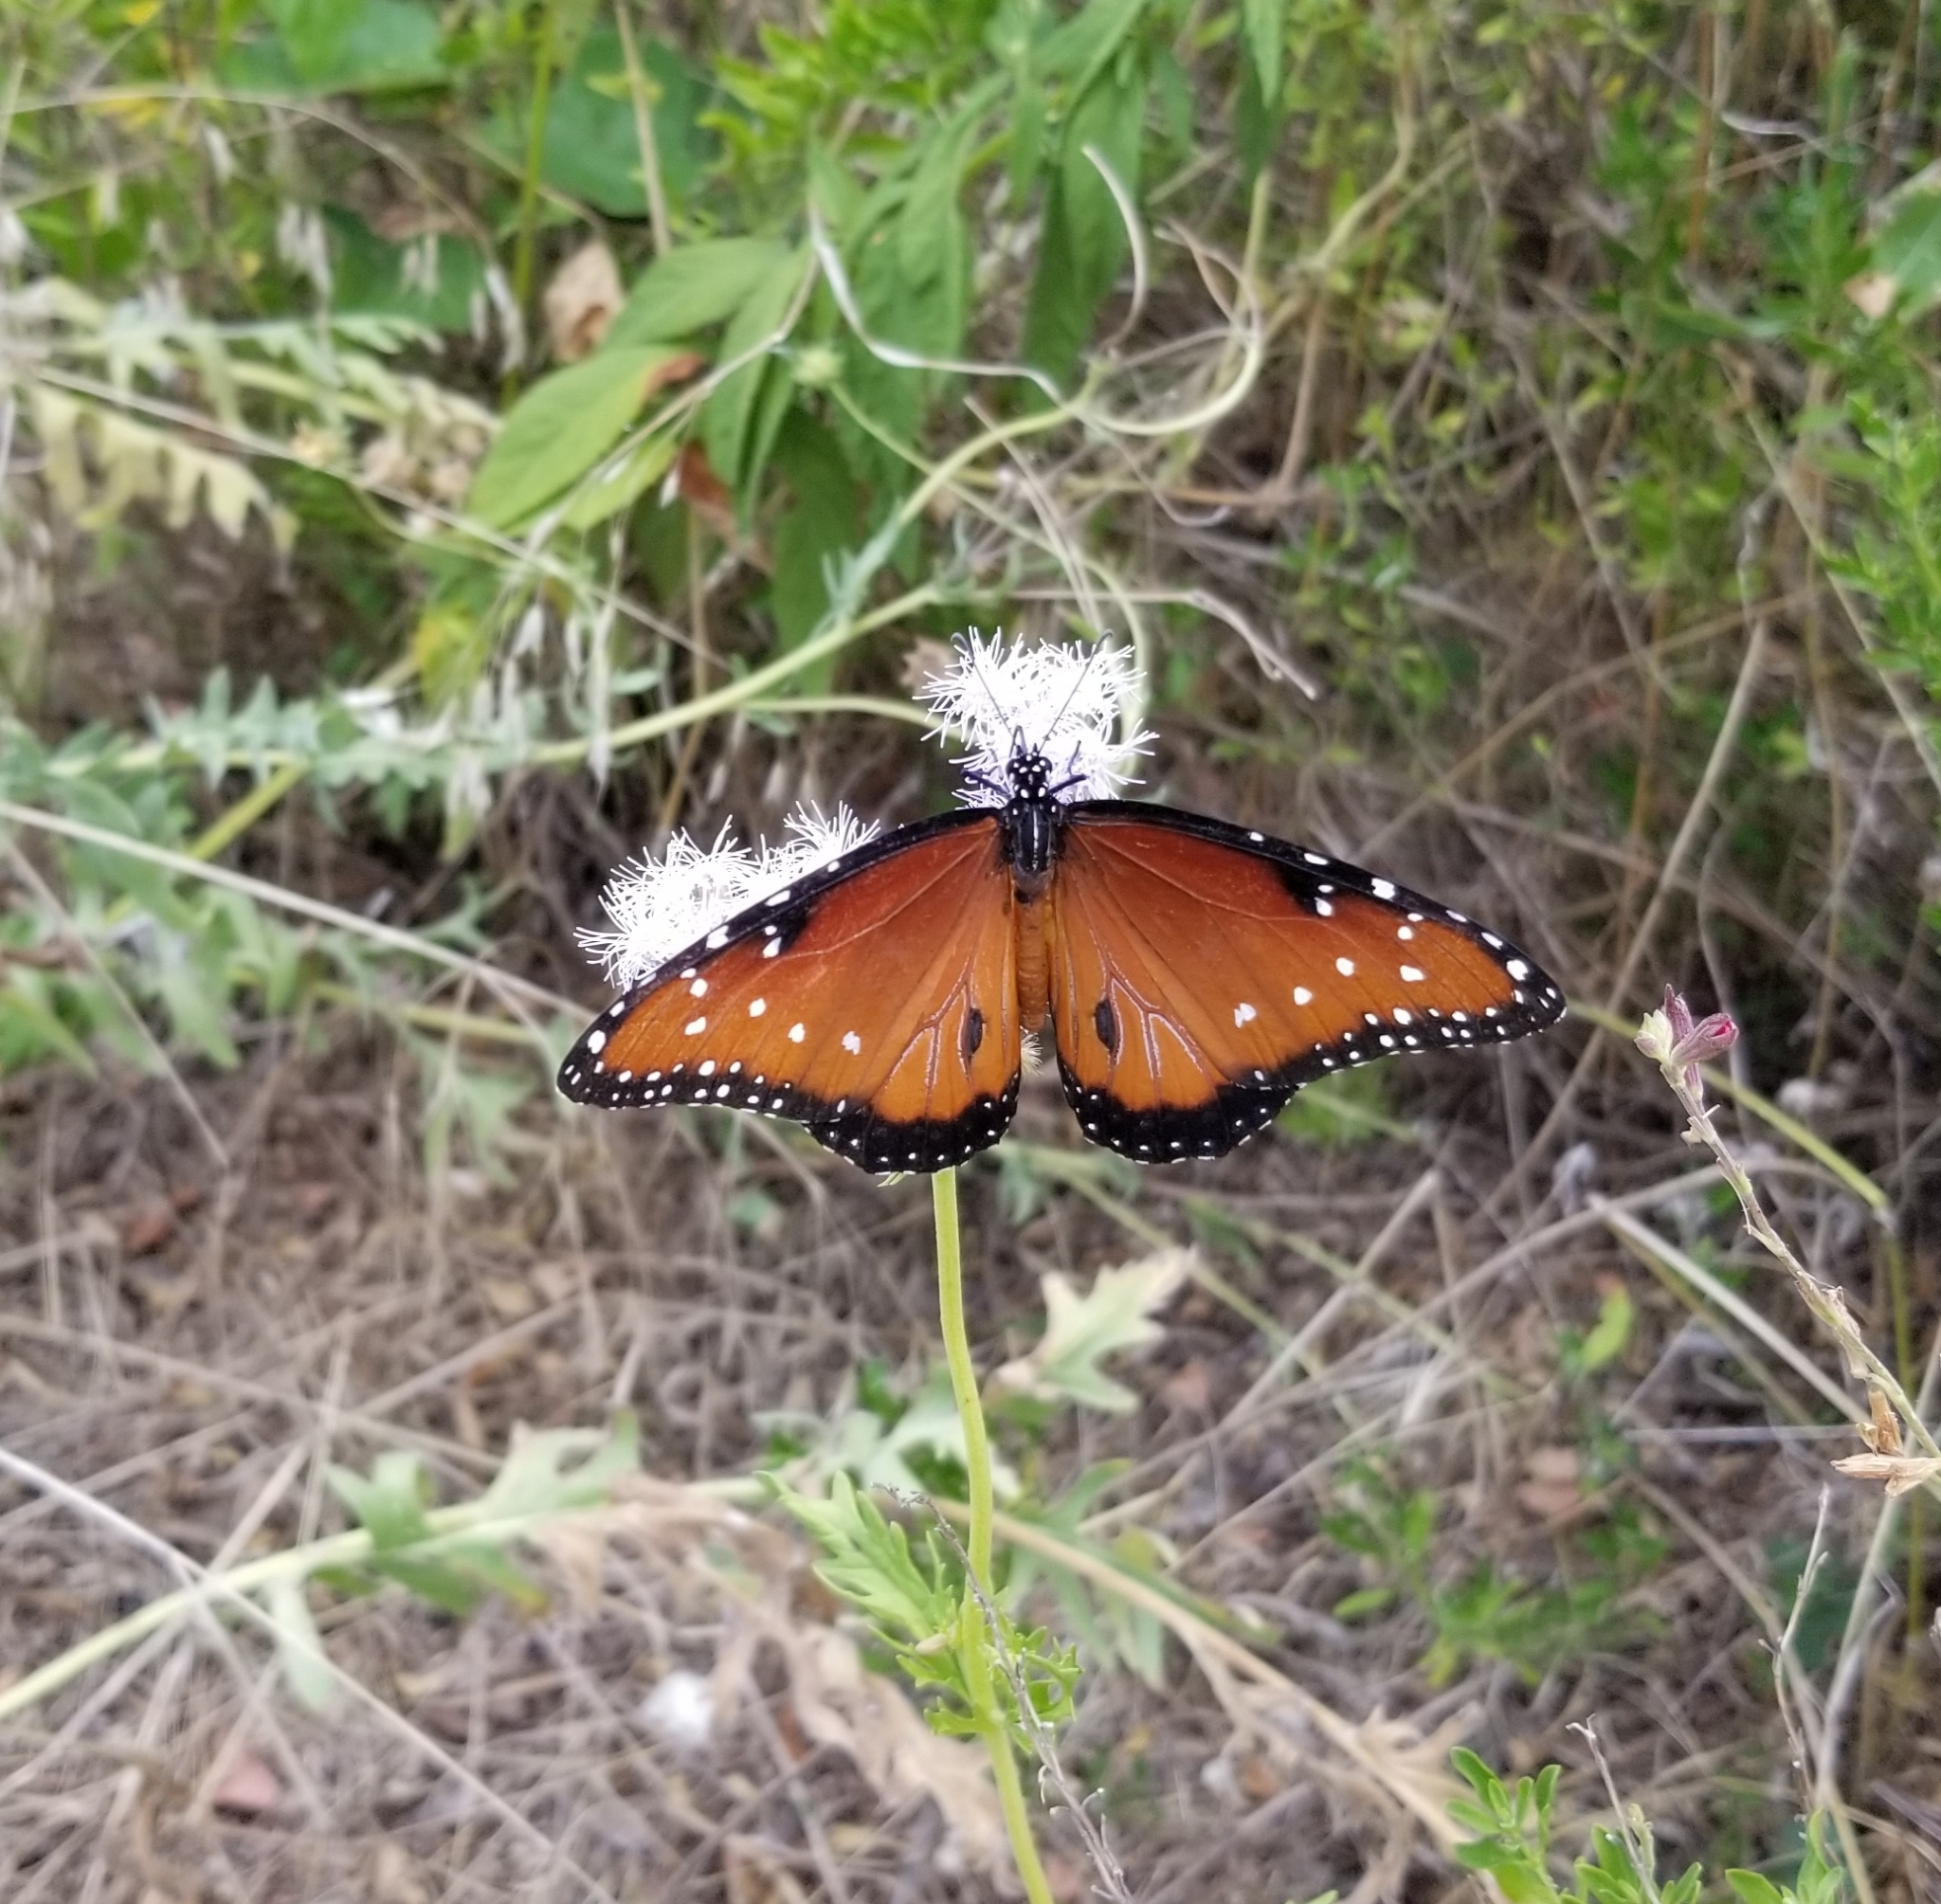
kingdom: Animalia
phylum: Arthropoda
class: Insecta
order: Lepidoptera
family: Nymphalidae
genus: Danaus
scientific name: Danaus gilippus
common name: Queen
